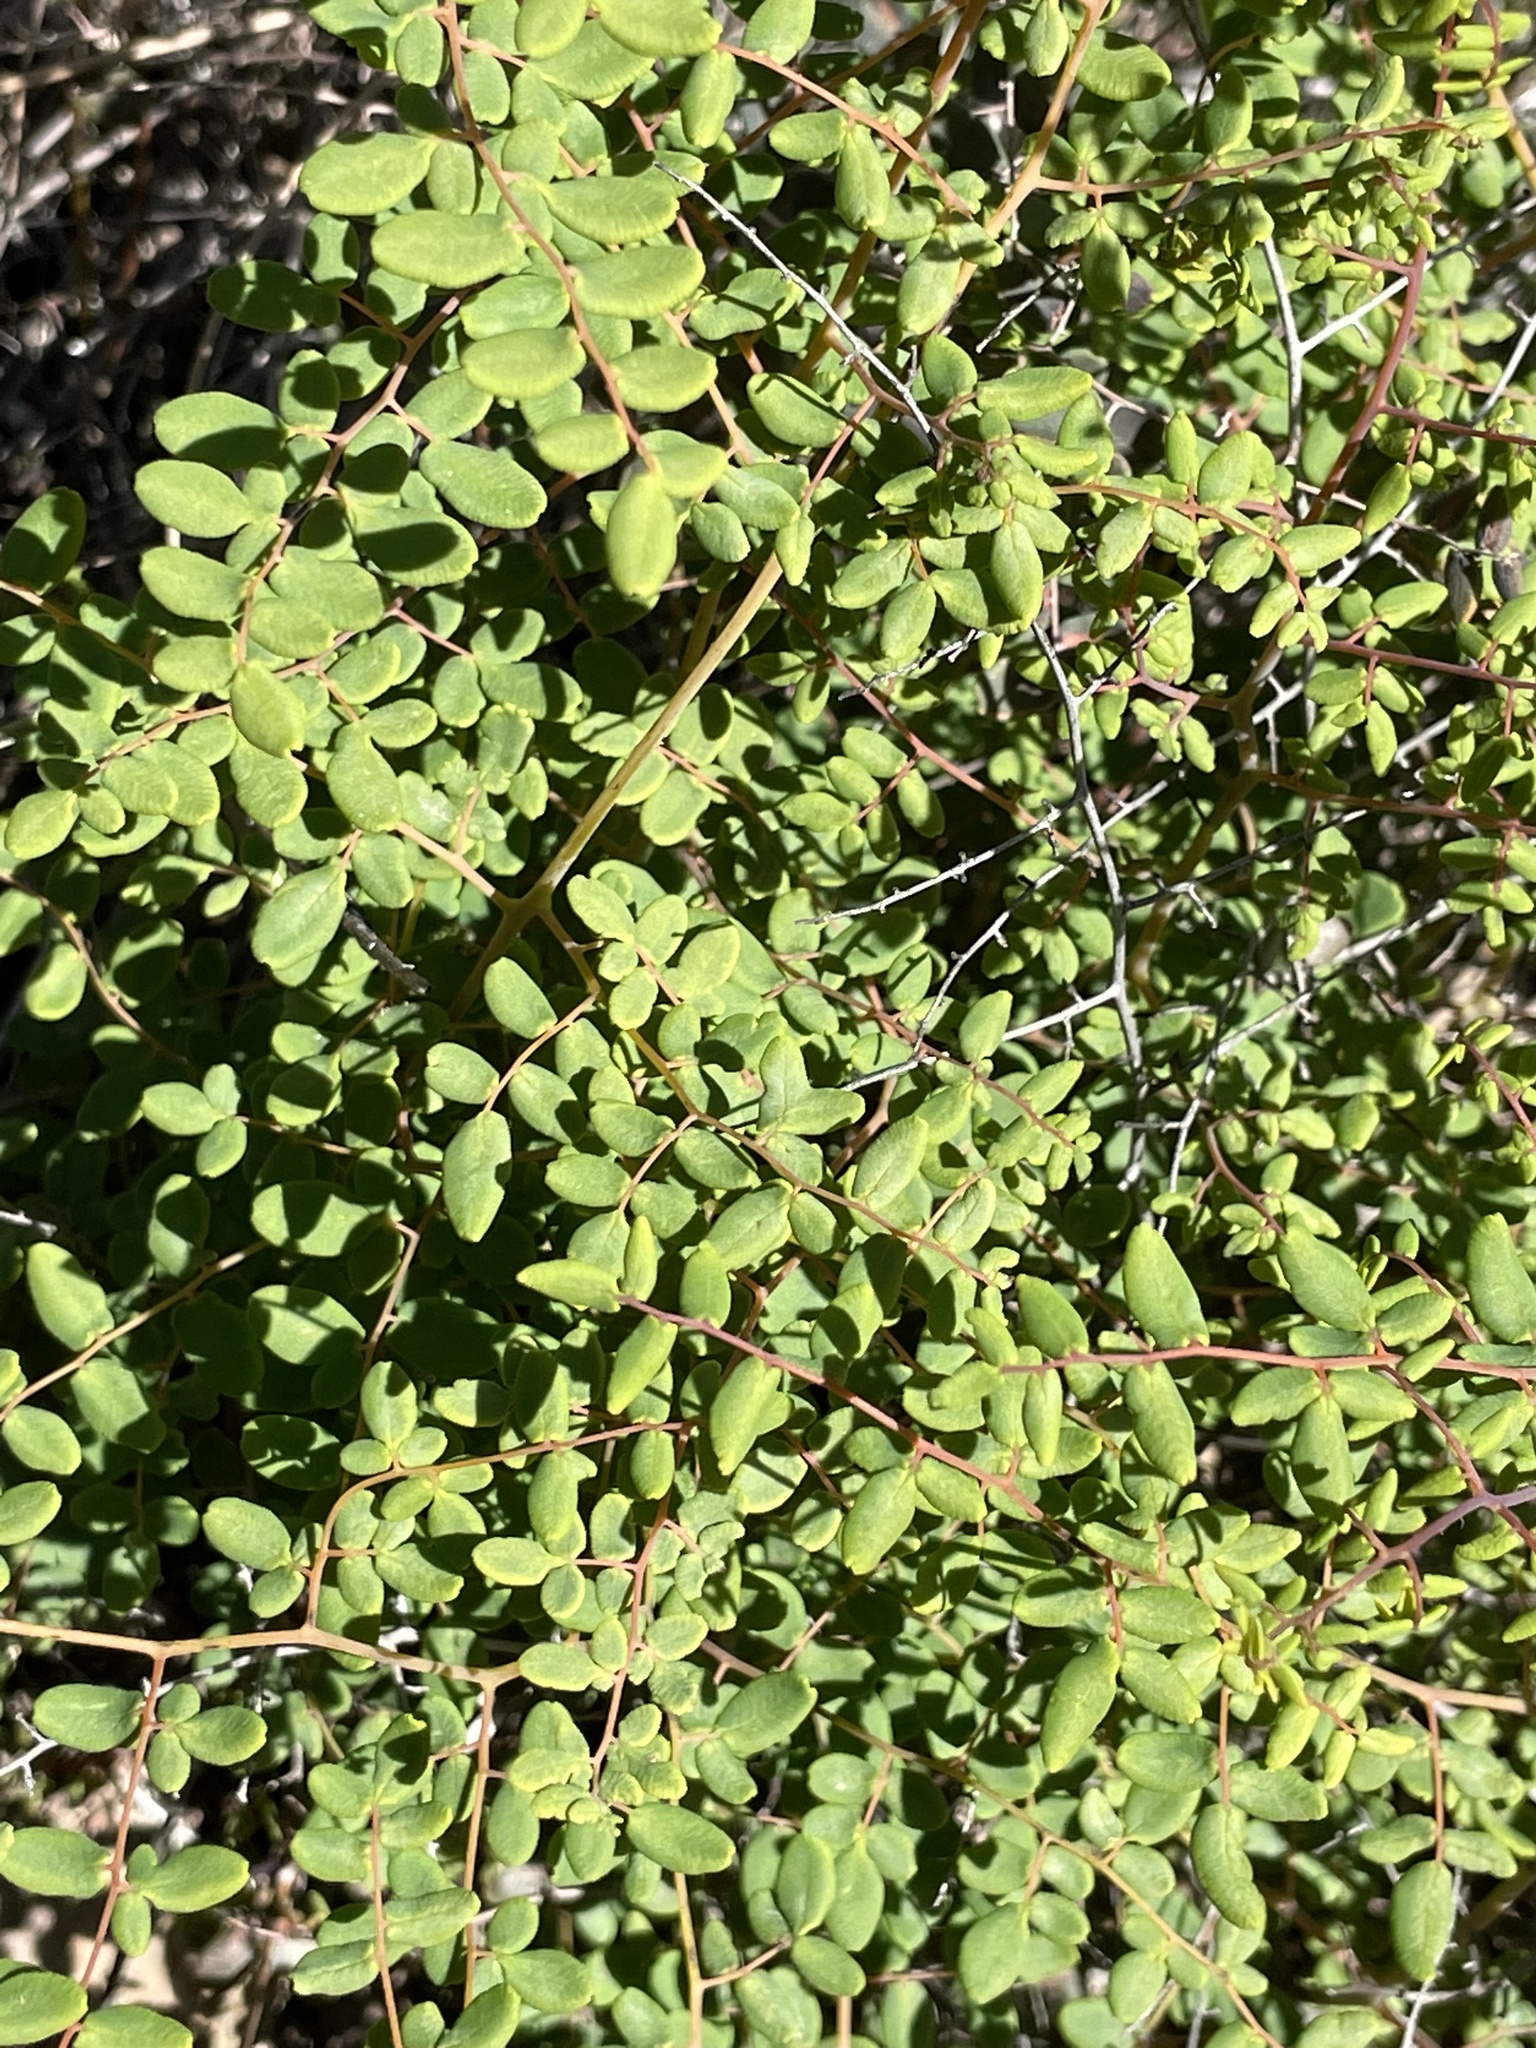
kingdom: Plantae
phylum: Tracheophyta
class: Polypodiopsida
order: Polypodiales
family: Pteridaceae
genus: Pellaea
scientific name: Pellaea andromedifolia
